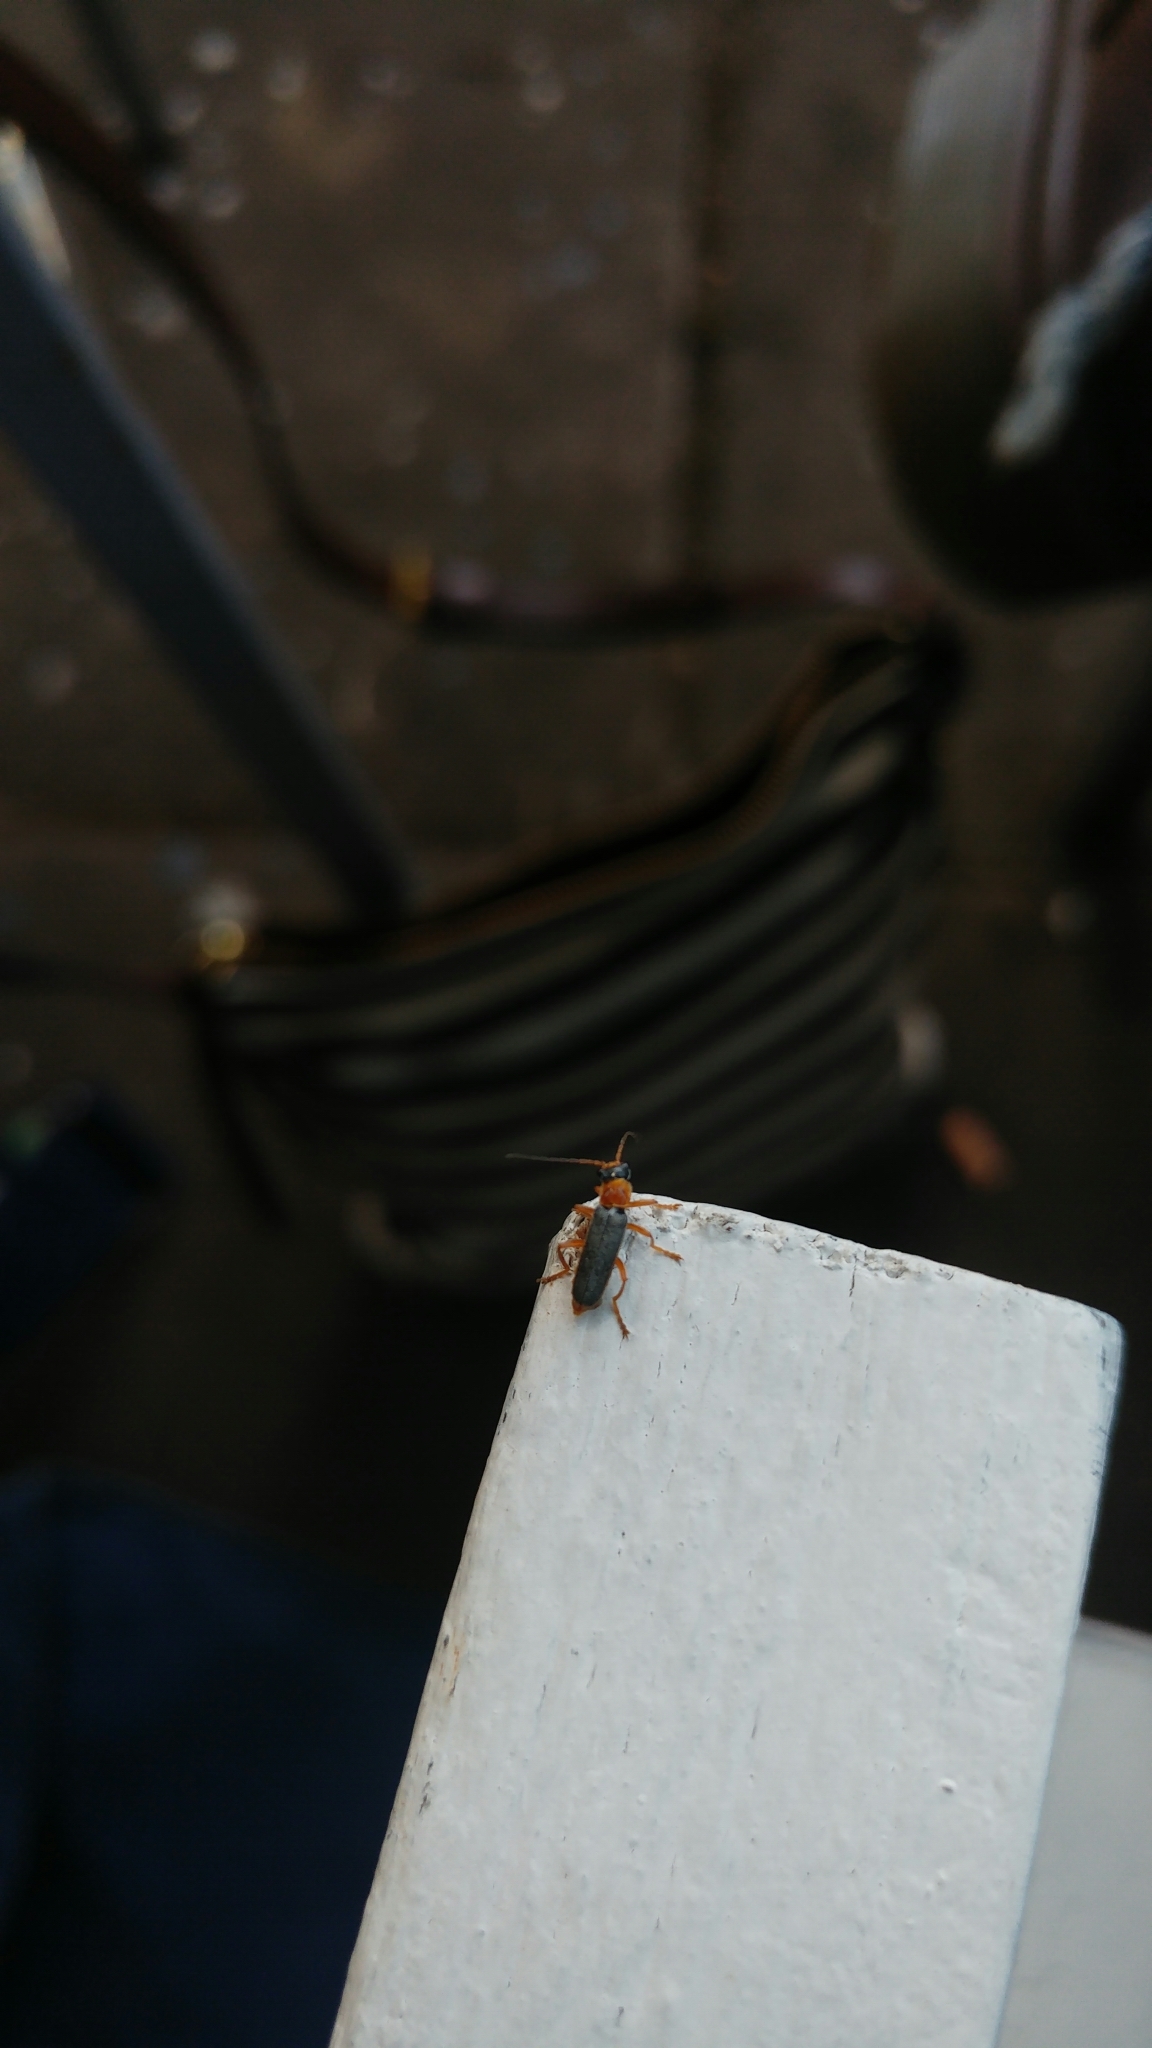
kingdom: Animalia
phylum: Arthropoda
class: Insecta
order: Coleoptera
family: Cantharidae
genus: Cantharis
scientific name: Cantharis lateralis
